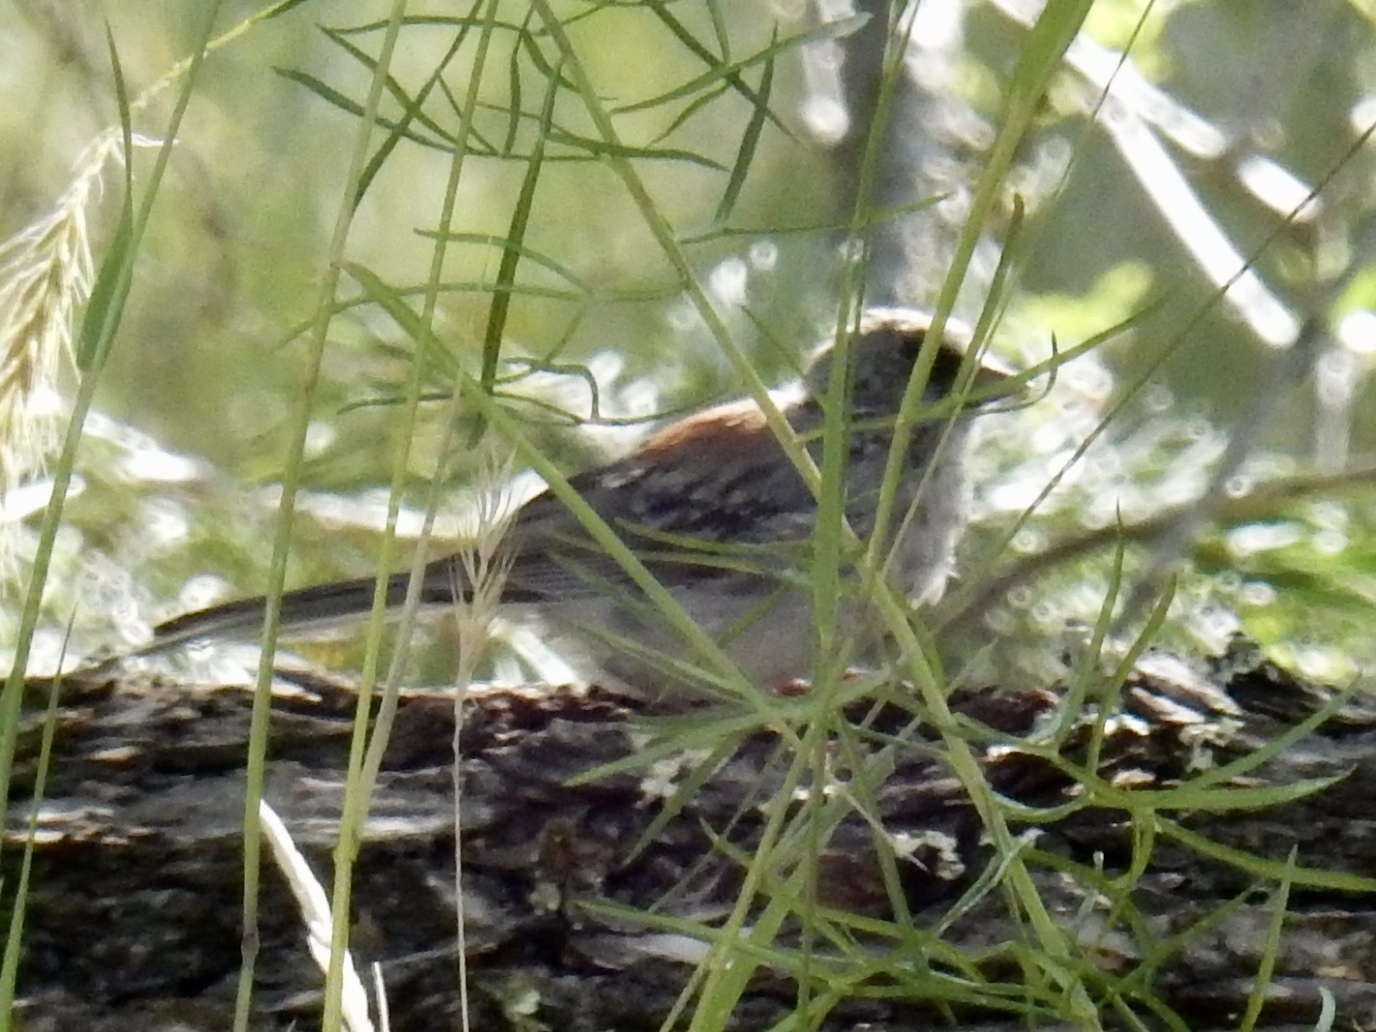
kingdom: Animalia
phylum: Chordata
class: Aves
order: Passeriformes
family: Passerellidae
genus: Junco
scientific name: Junco hyemalis
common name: Dark-eyed junco
